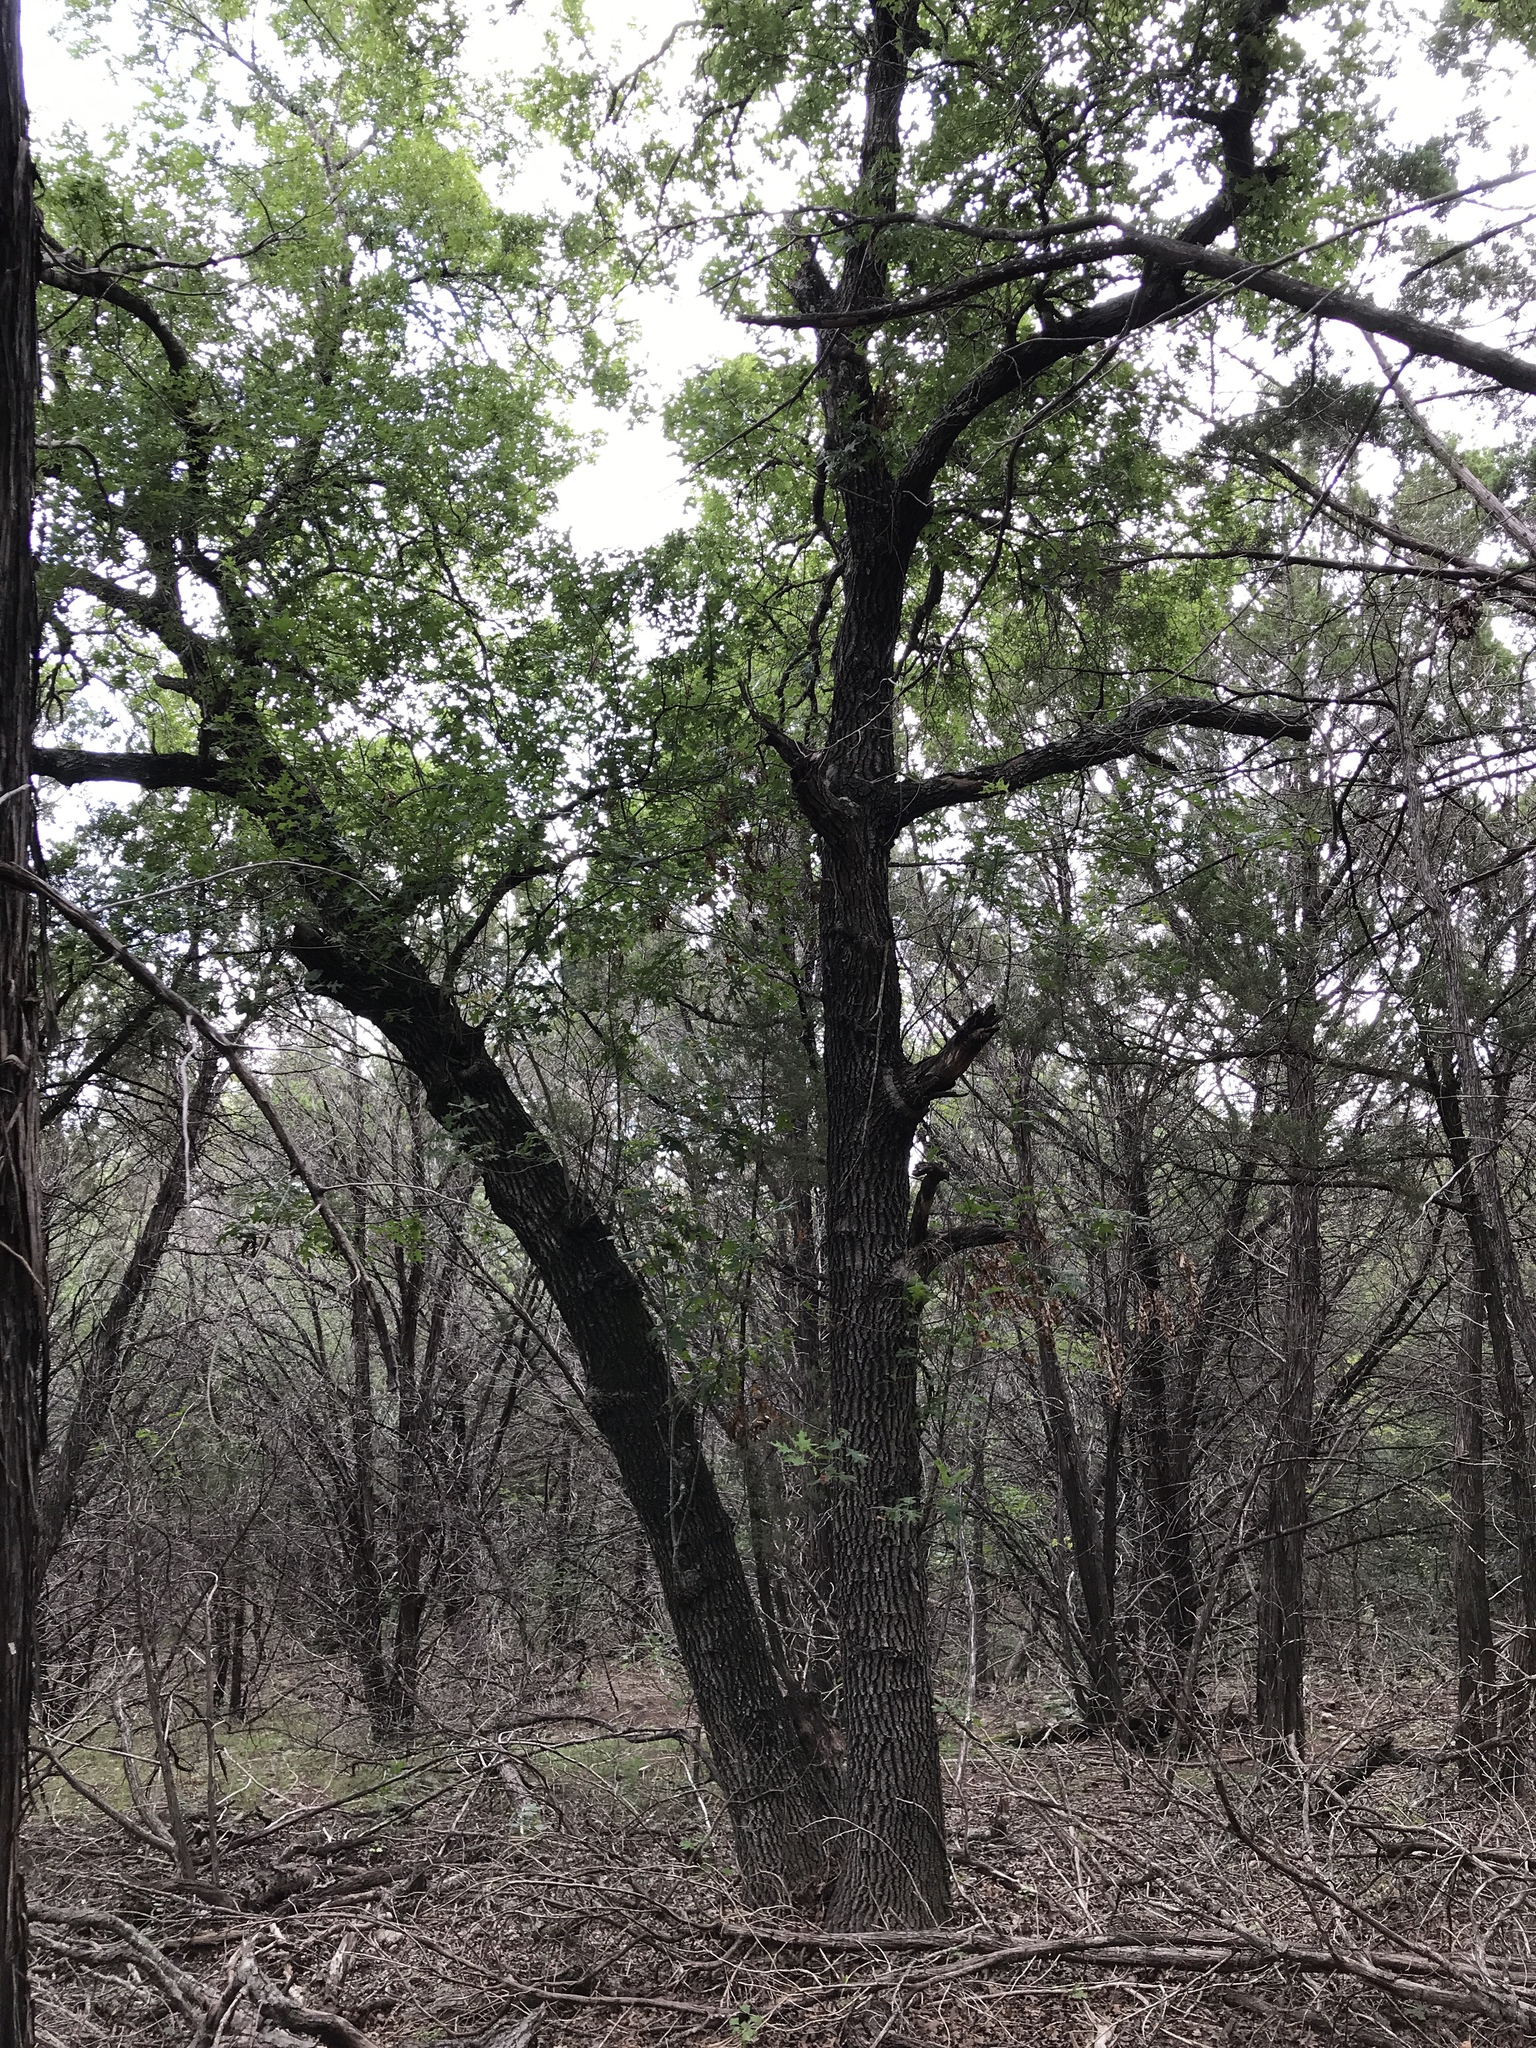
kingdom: Plantae
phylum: Tracheophyta
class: Magnoliopsida
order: Fagales
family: Fagaceae
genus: Quercus
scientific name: Quercus buckleyi
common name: Buckley oak
